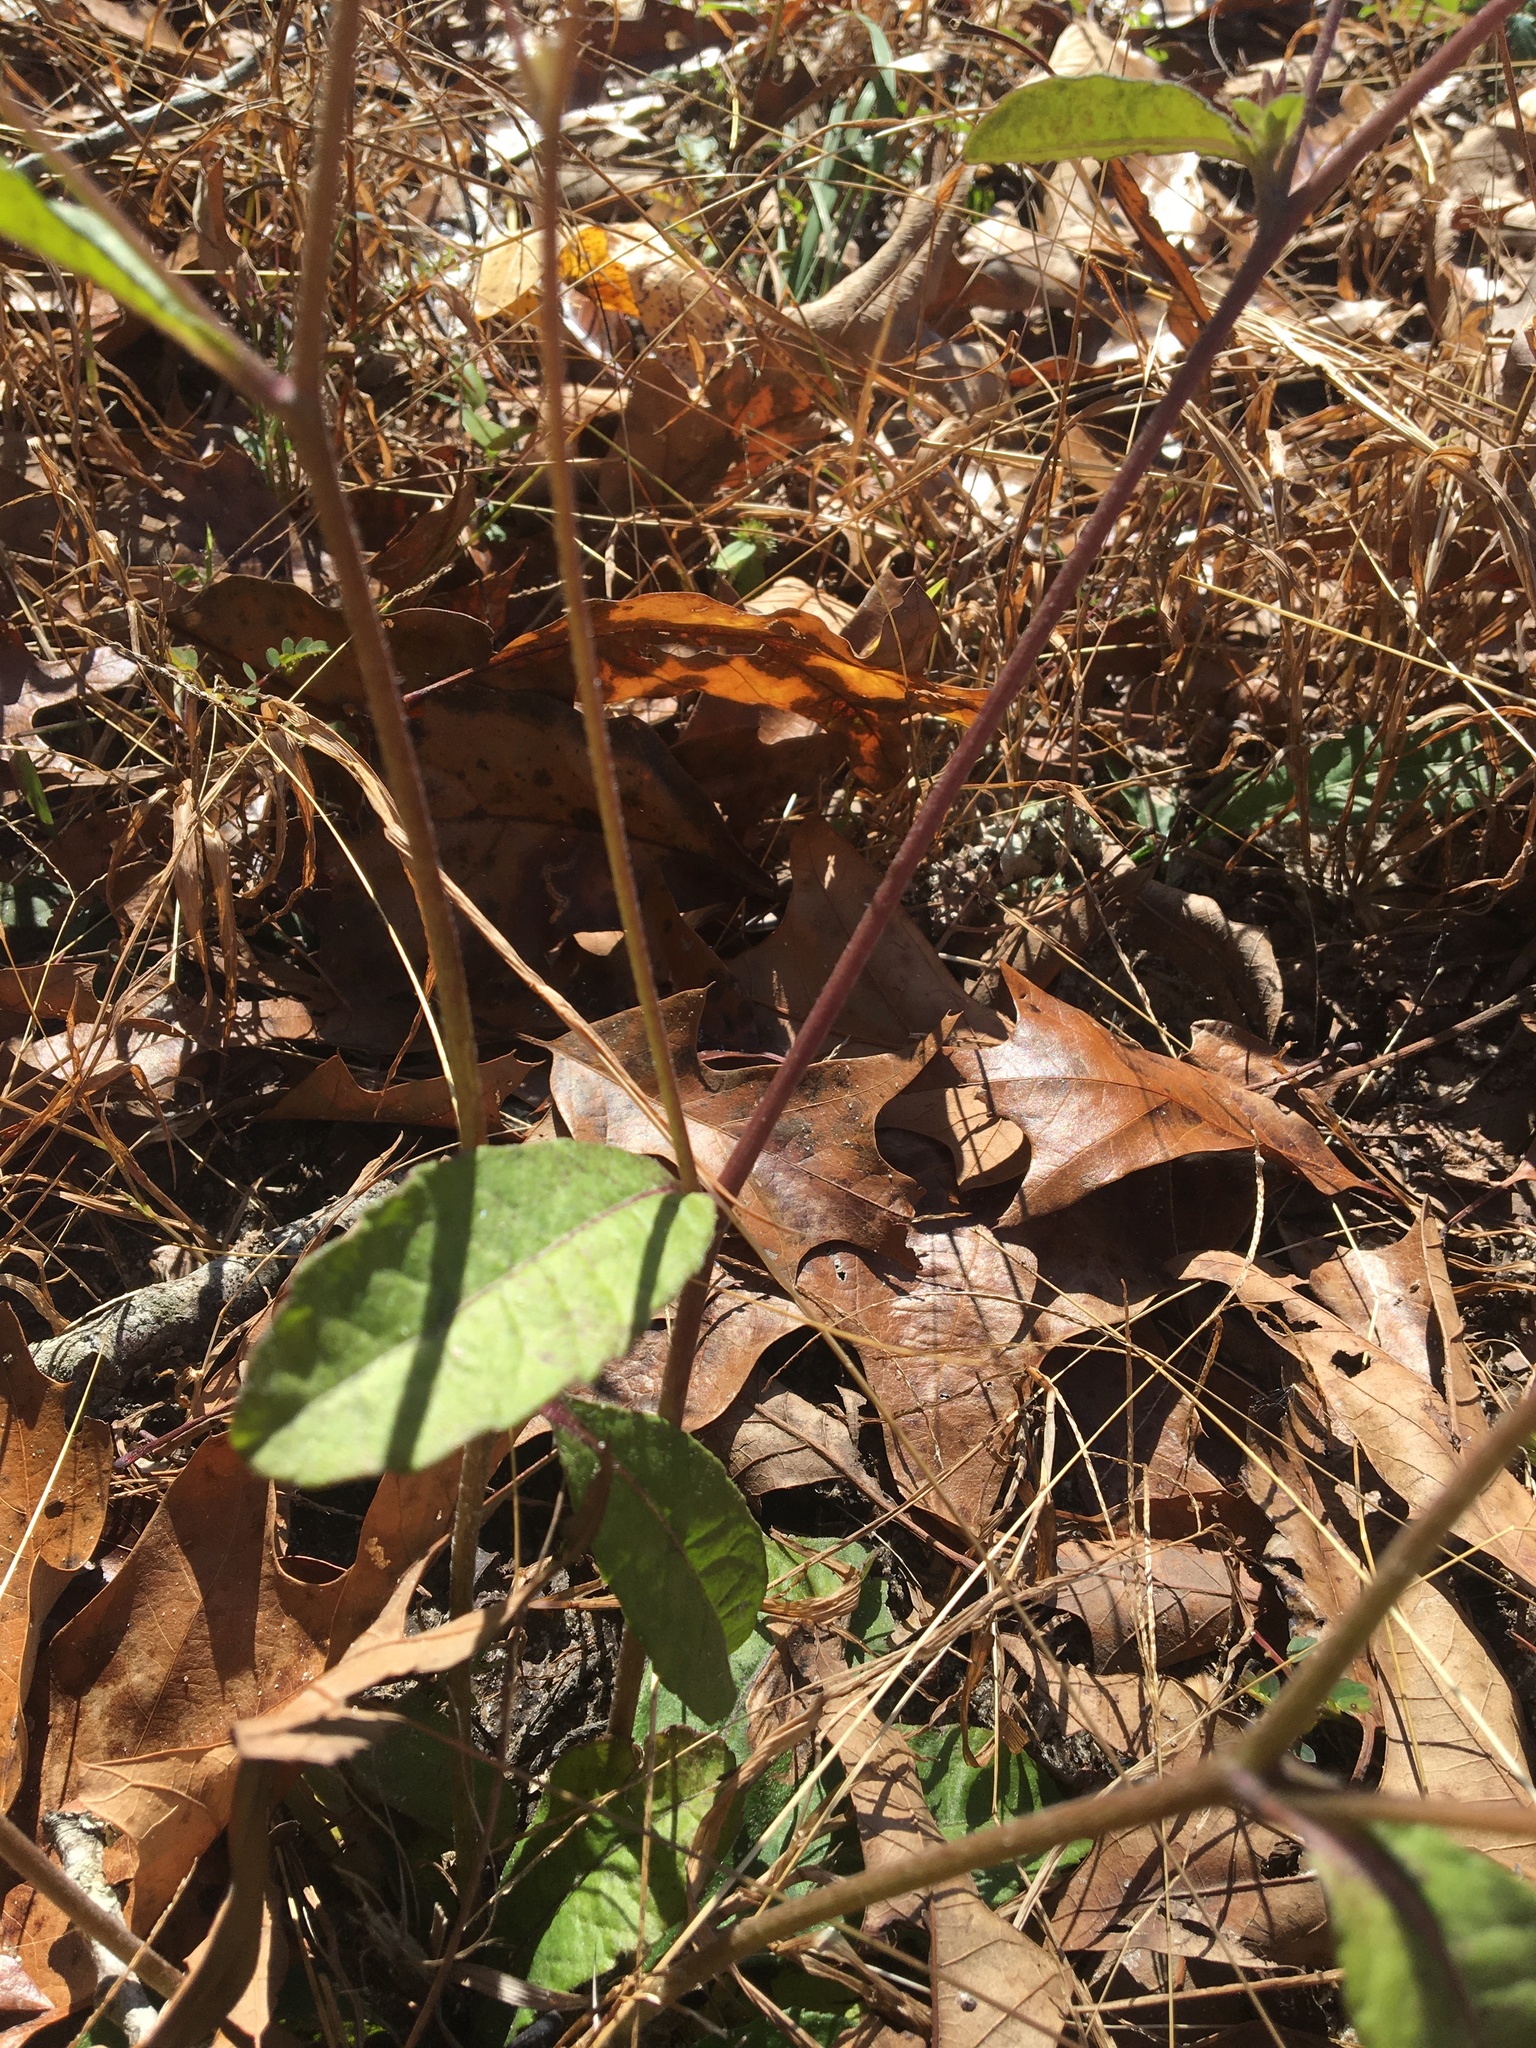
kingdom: Plantae
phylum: Tracheophyta
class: Magnoliopsida
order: Asterales
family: Asteraceae
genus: Elephantopus
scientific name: Elephantopus nudatus
